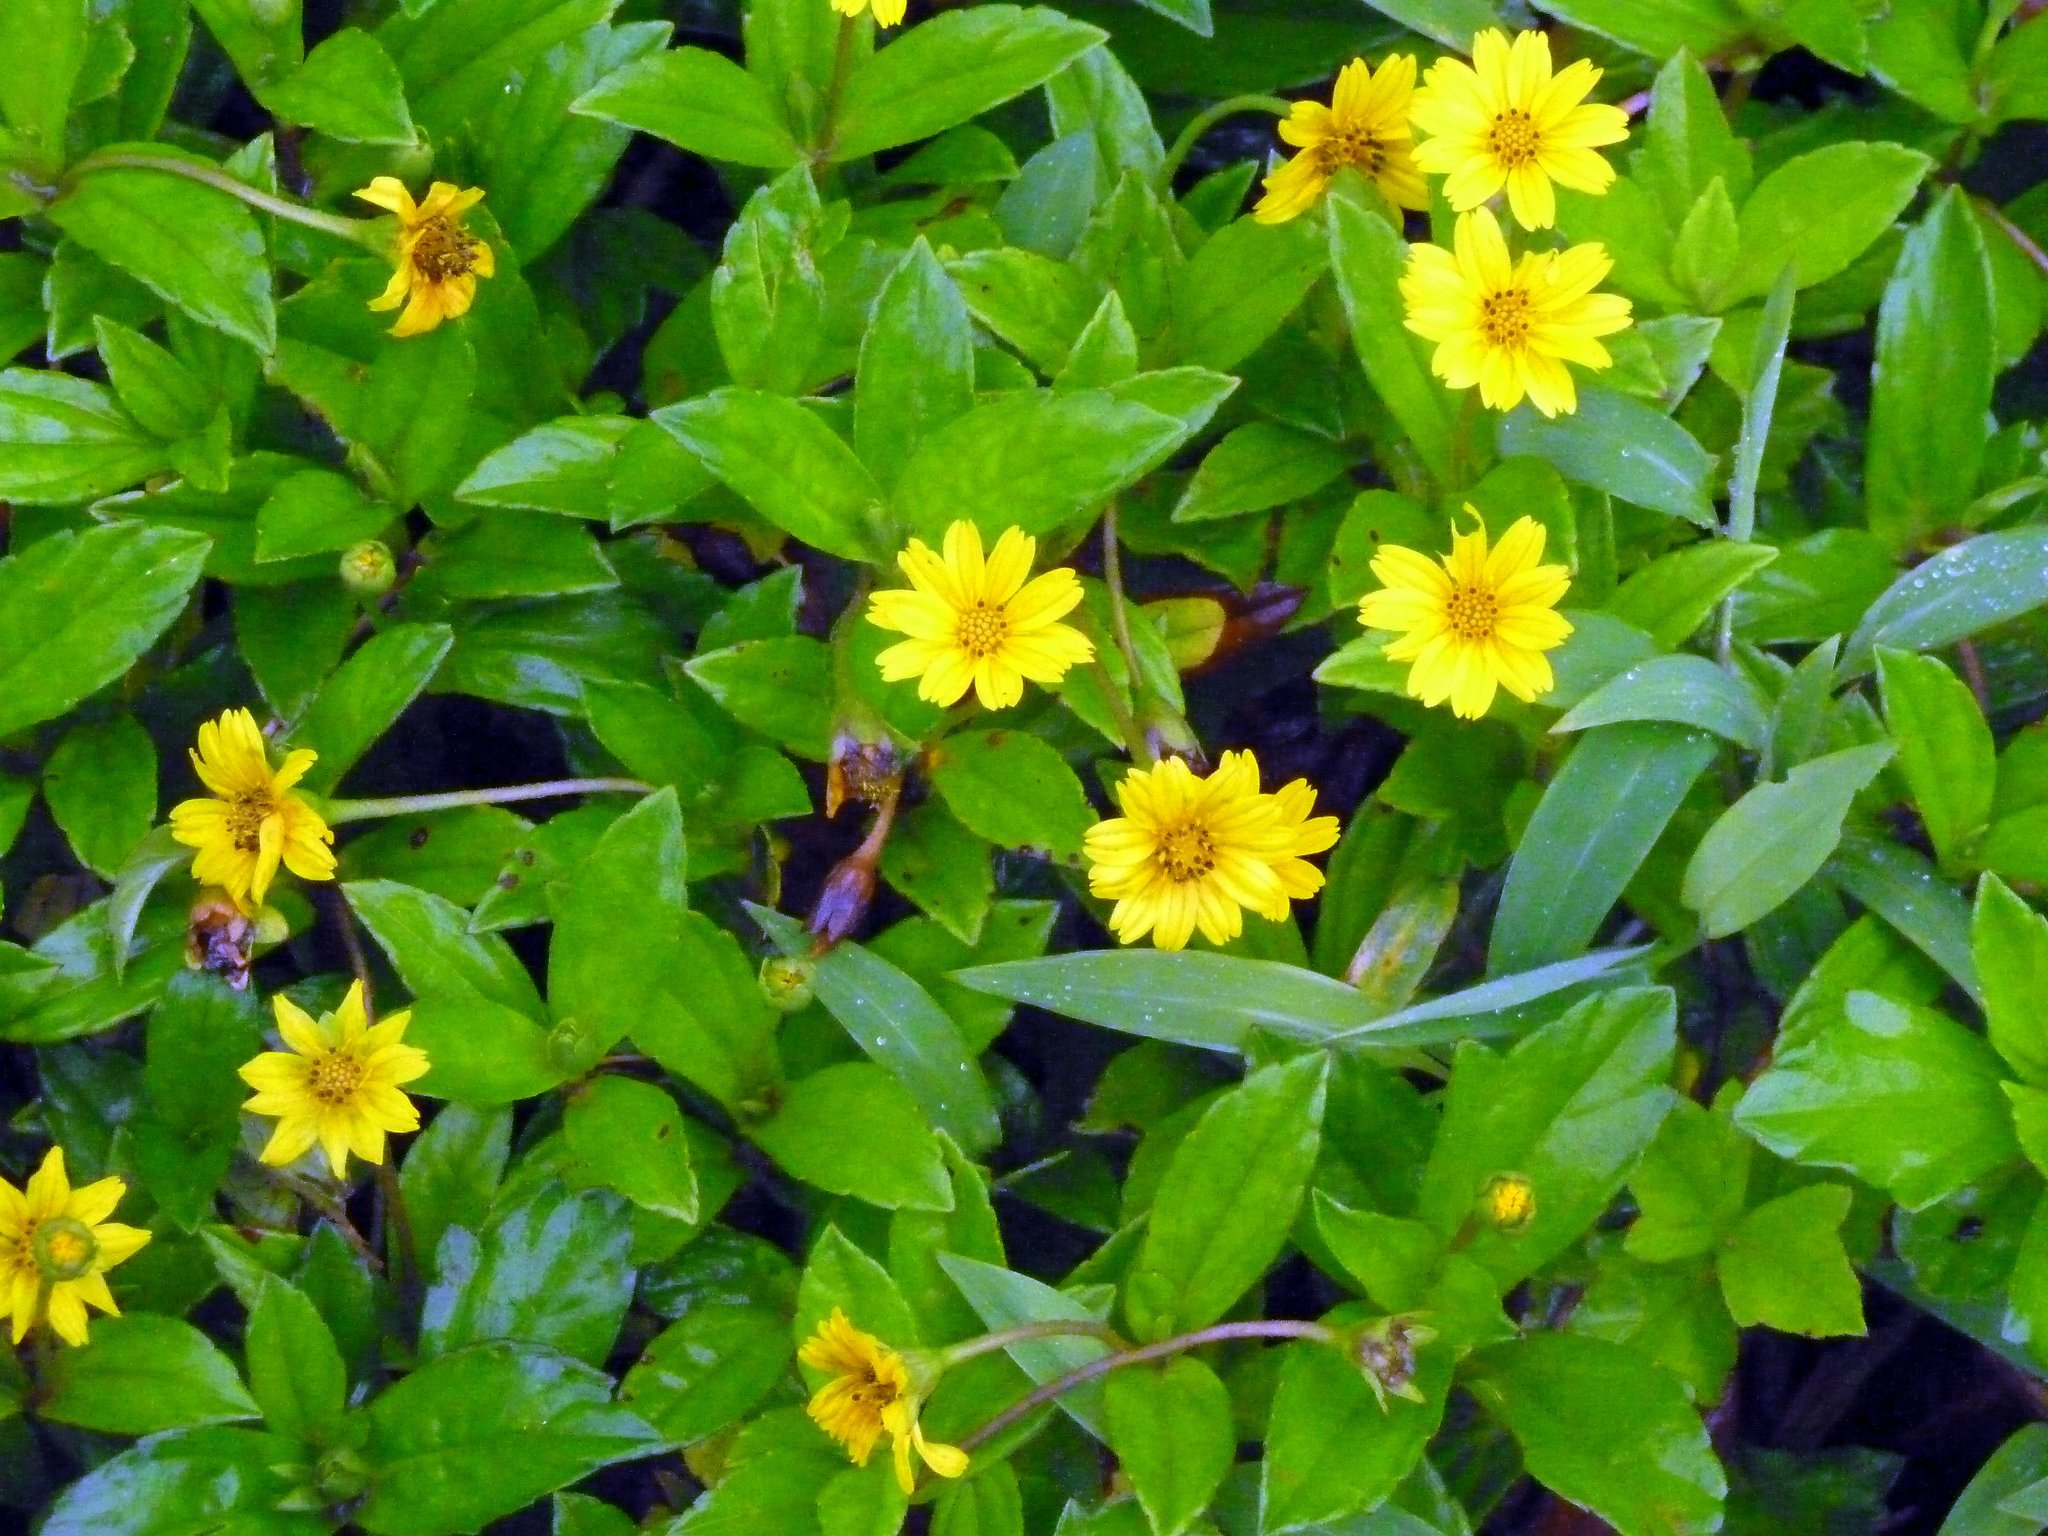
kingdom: Plantae
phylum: Tracheophyta
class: Magnoliopsida
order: Asterales
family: Asteraceae
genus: Sphagneticola
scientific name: Sphagneticola trilobata
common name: Bay biscayne creeping-oxeye
